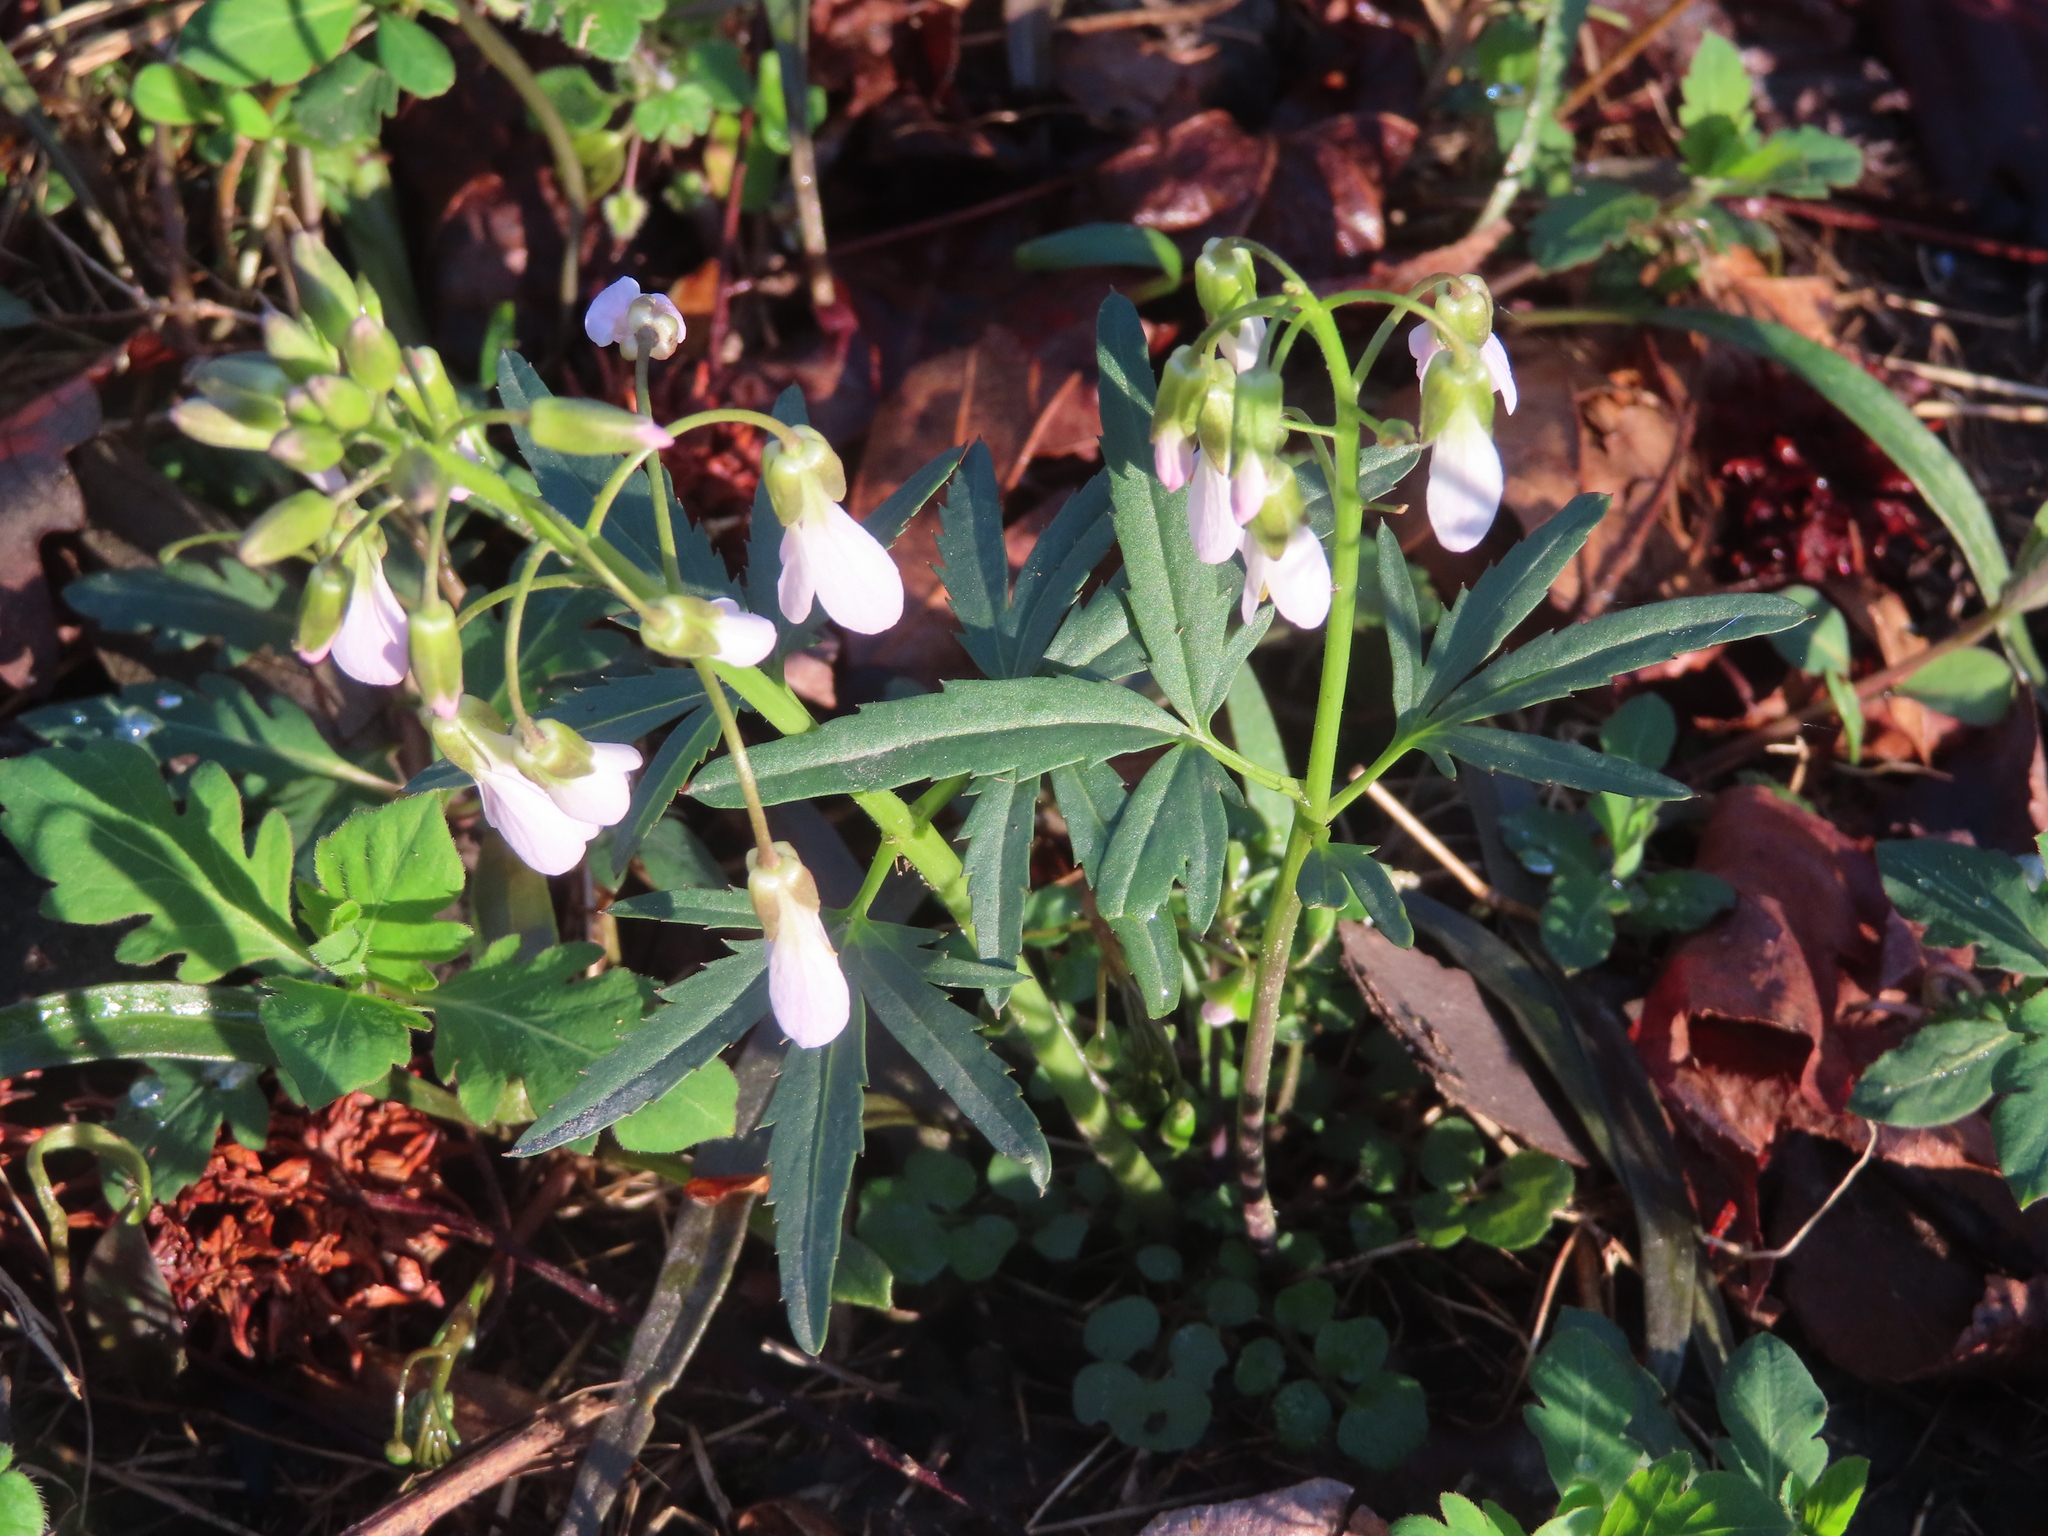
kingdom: Plantae
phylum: Tracheophyta
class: Magnoliopsida
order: Brassicales
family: Brassicaceae
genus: Cardamine
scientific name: Cardamine concatenata
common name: Cut-leaf toothcup
